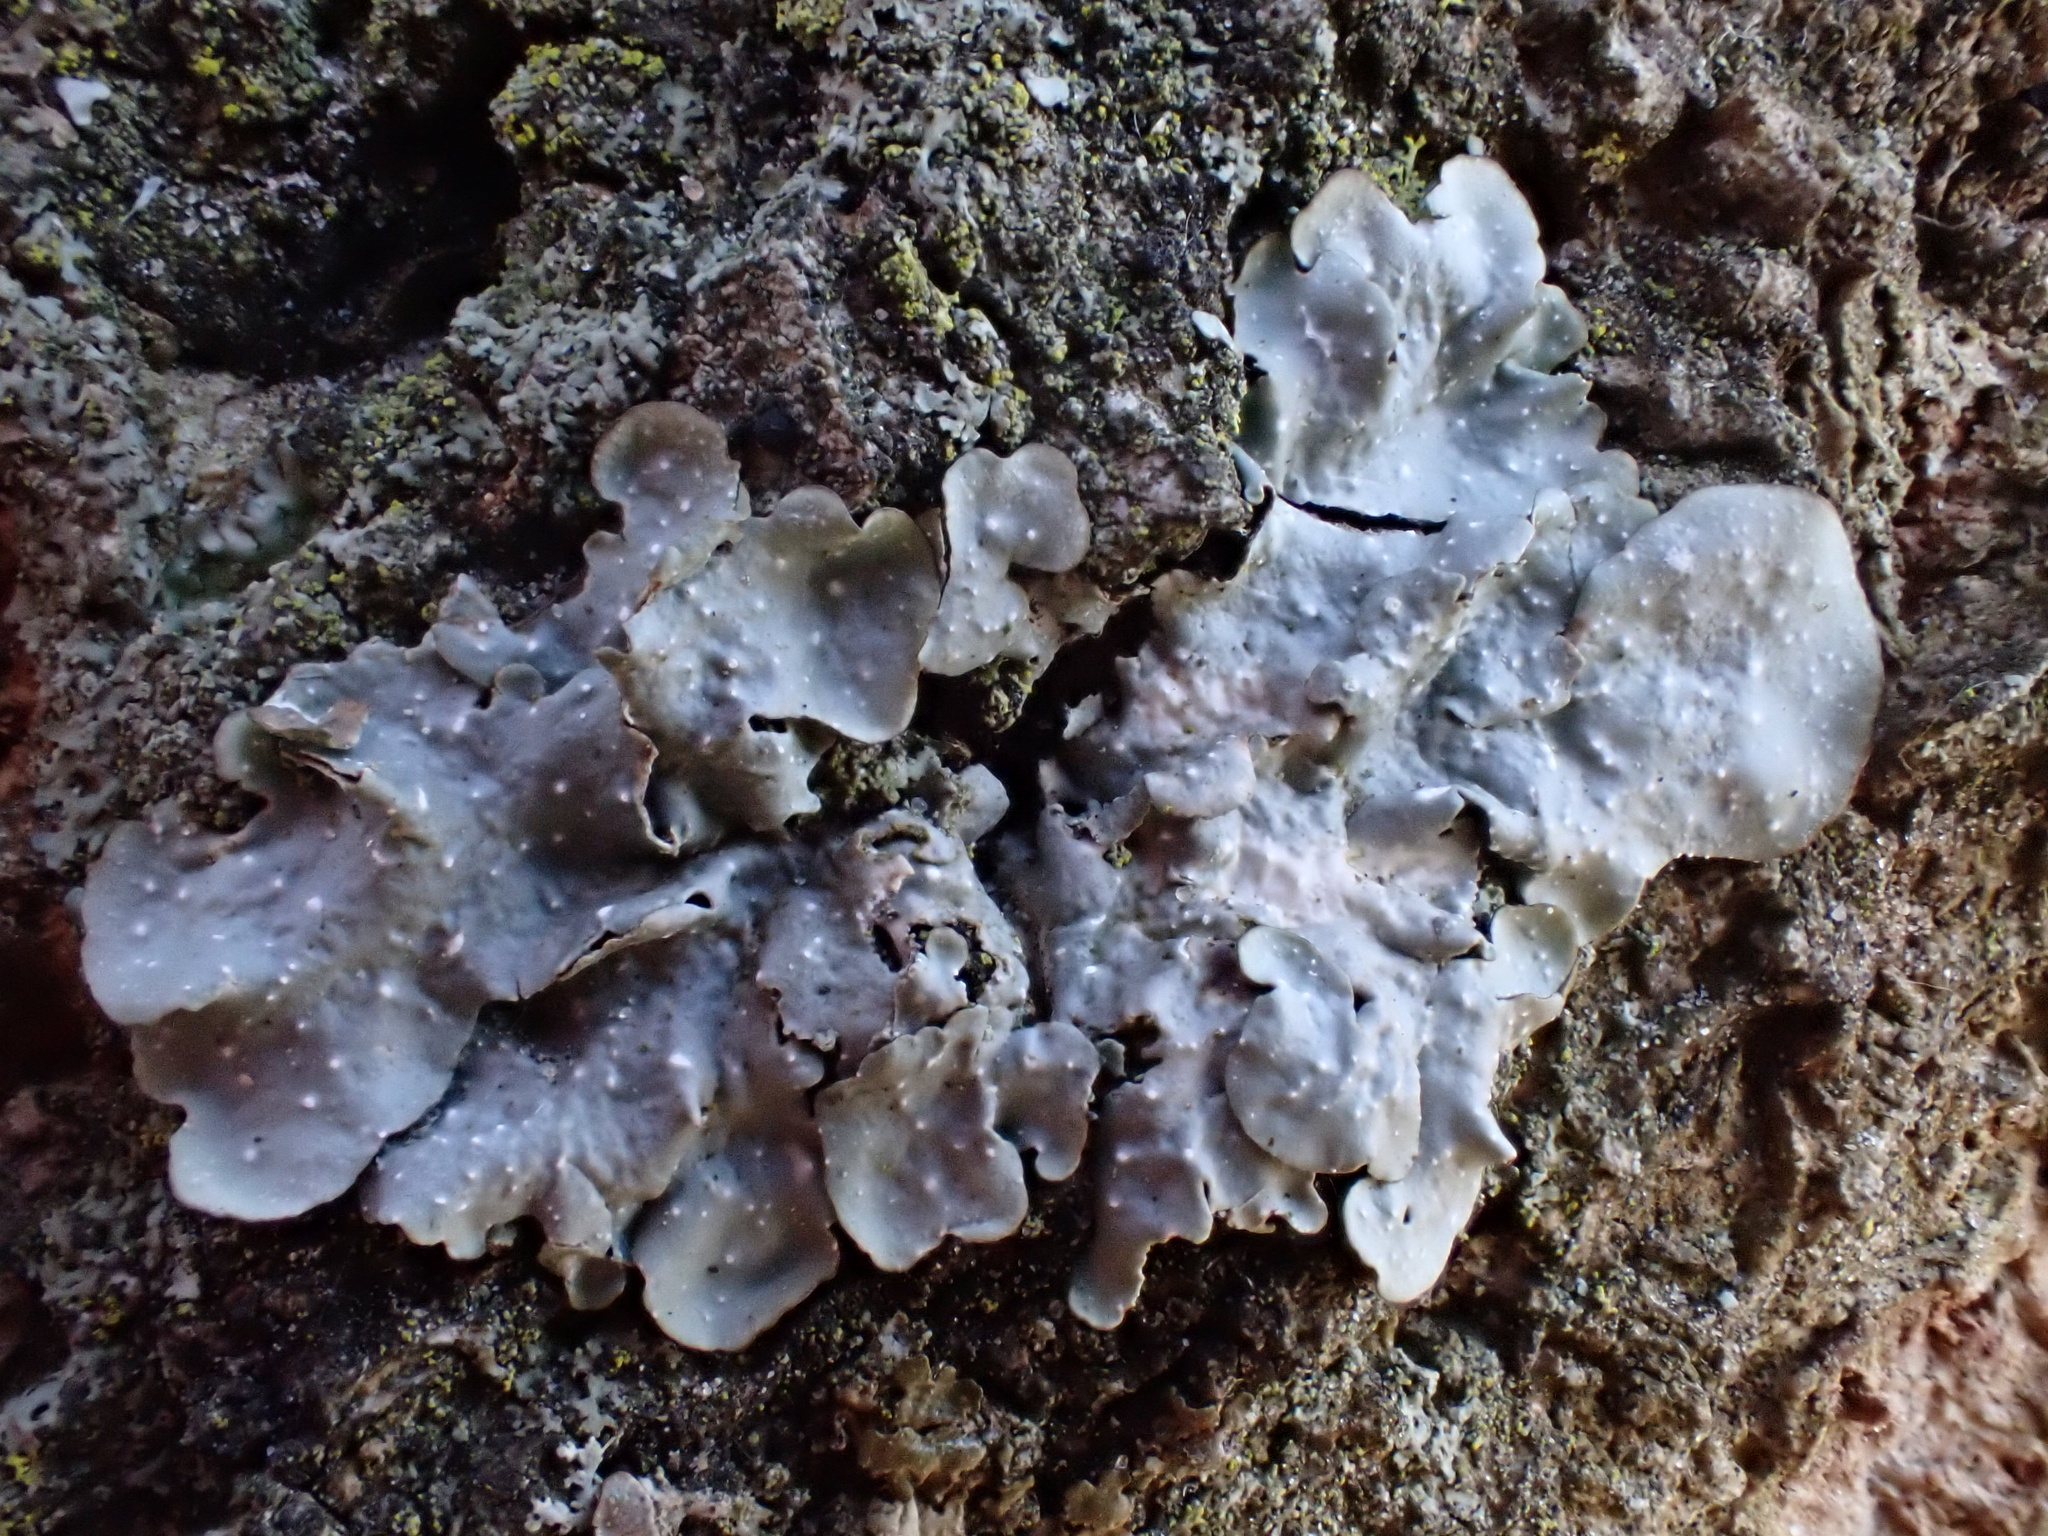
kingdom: Fungi
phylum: Ascomycota
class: Lecanoromycetes
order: Lecanorales
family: Parmeliaceae
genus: Punctelia
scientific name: Punctelia borreri
